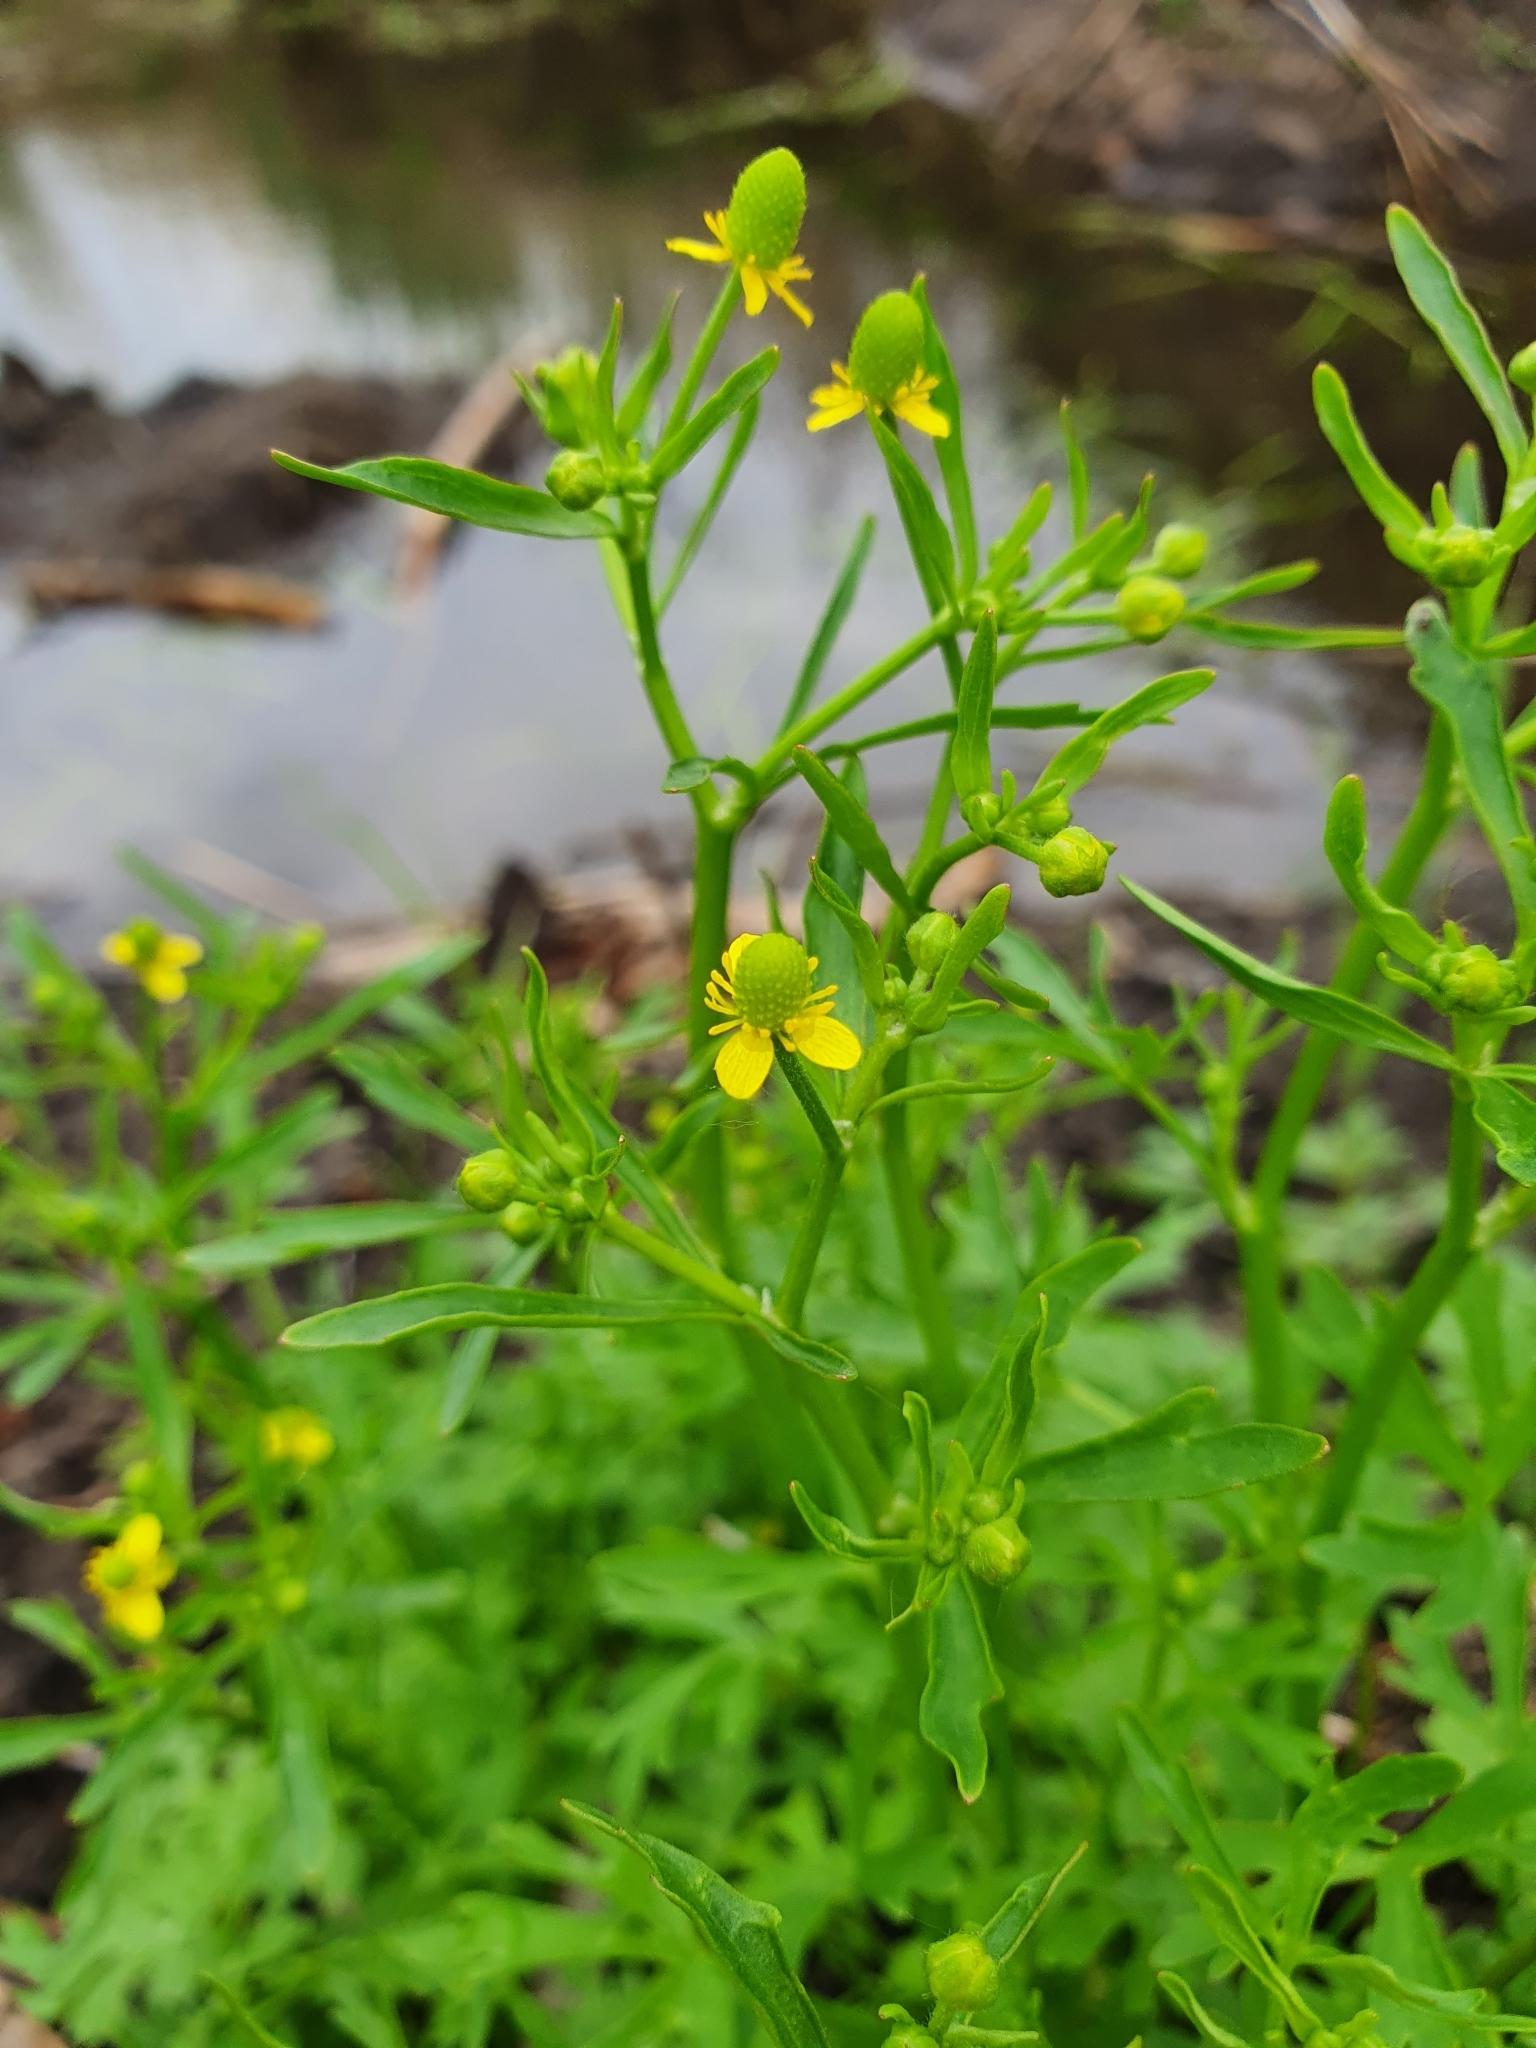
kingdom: Plantae
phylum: Tracheophyta
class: Magnoliopsida
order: Ranunculales
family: Ranunculaceae
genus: Ranunculus
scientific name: Ranunculus sceleratus
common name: Celery-leaved buttercup
